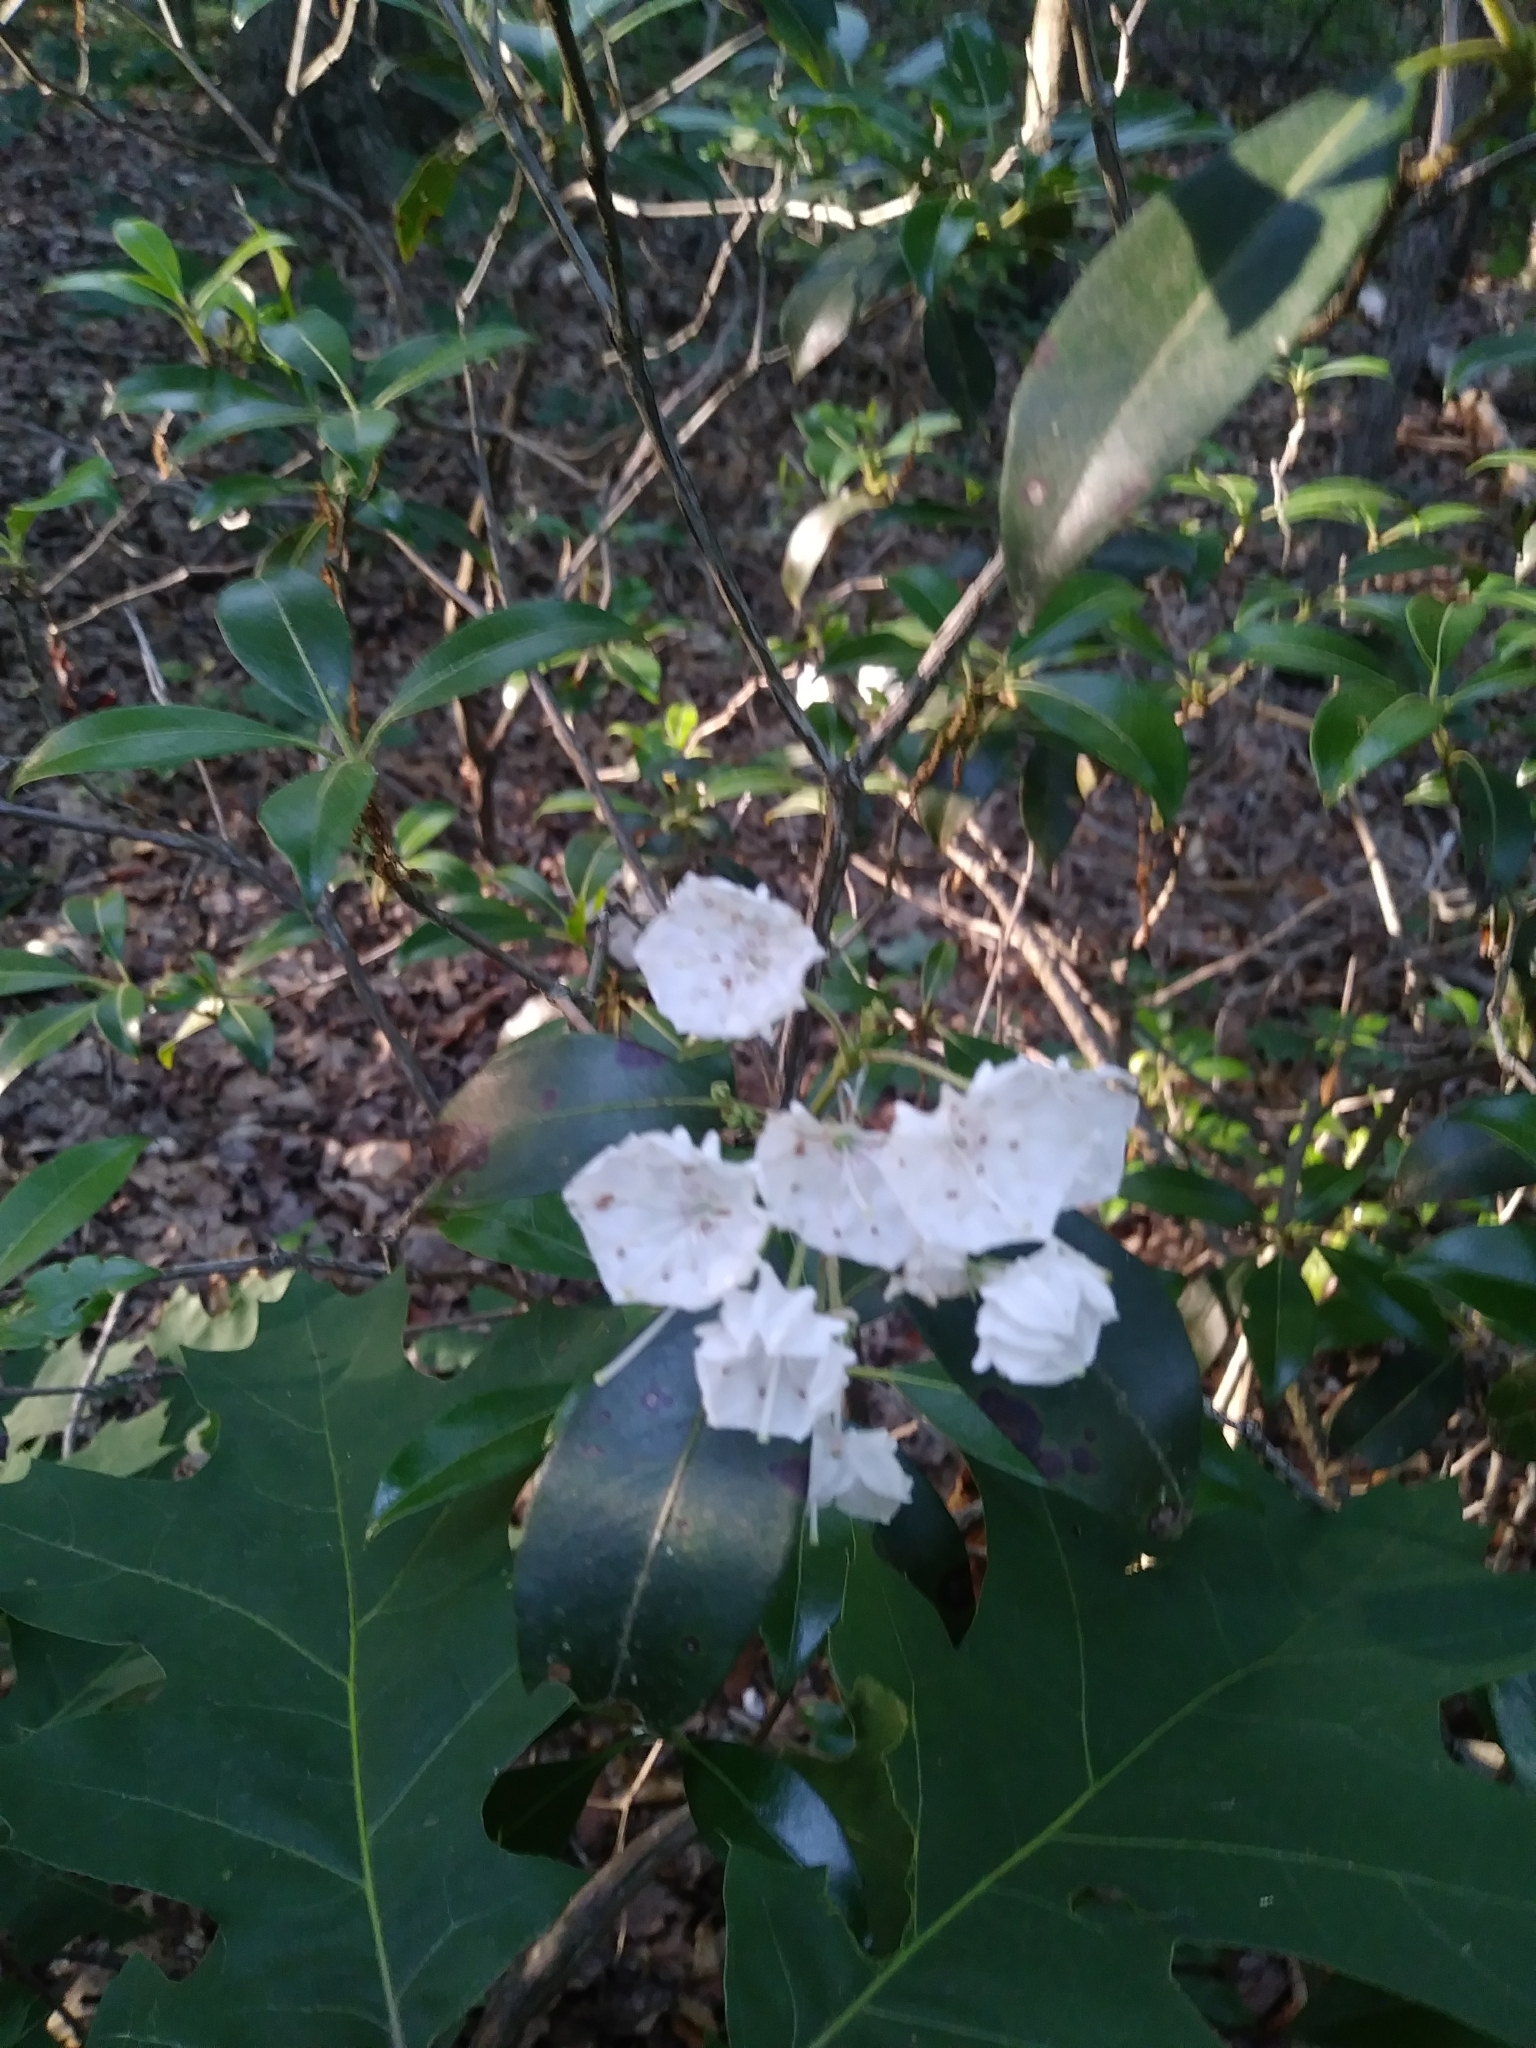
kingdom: Plantae
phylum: Tracheophyta
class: Magnoliopsida
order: Ericales
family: Ericaceae
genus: Kalmia
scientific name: Kalmia latifolia
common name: Mountain-laurel
